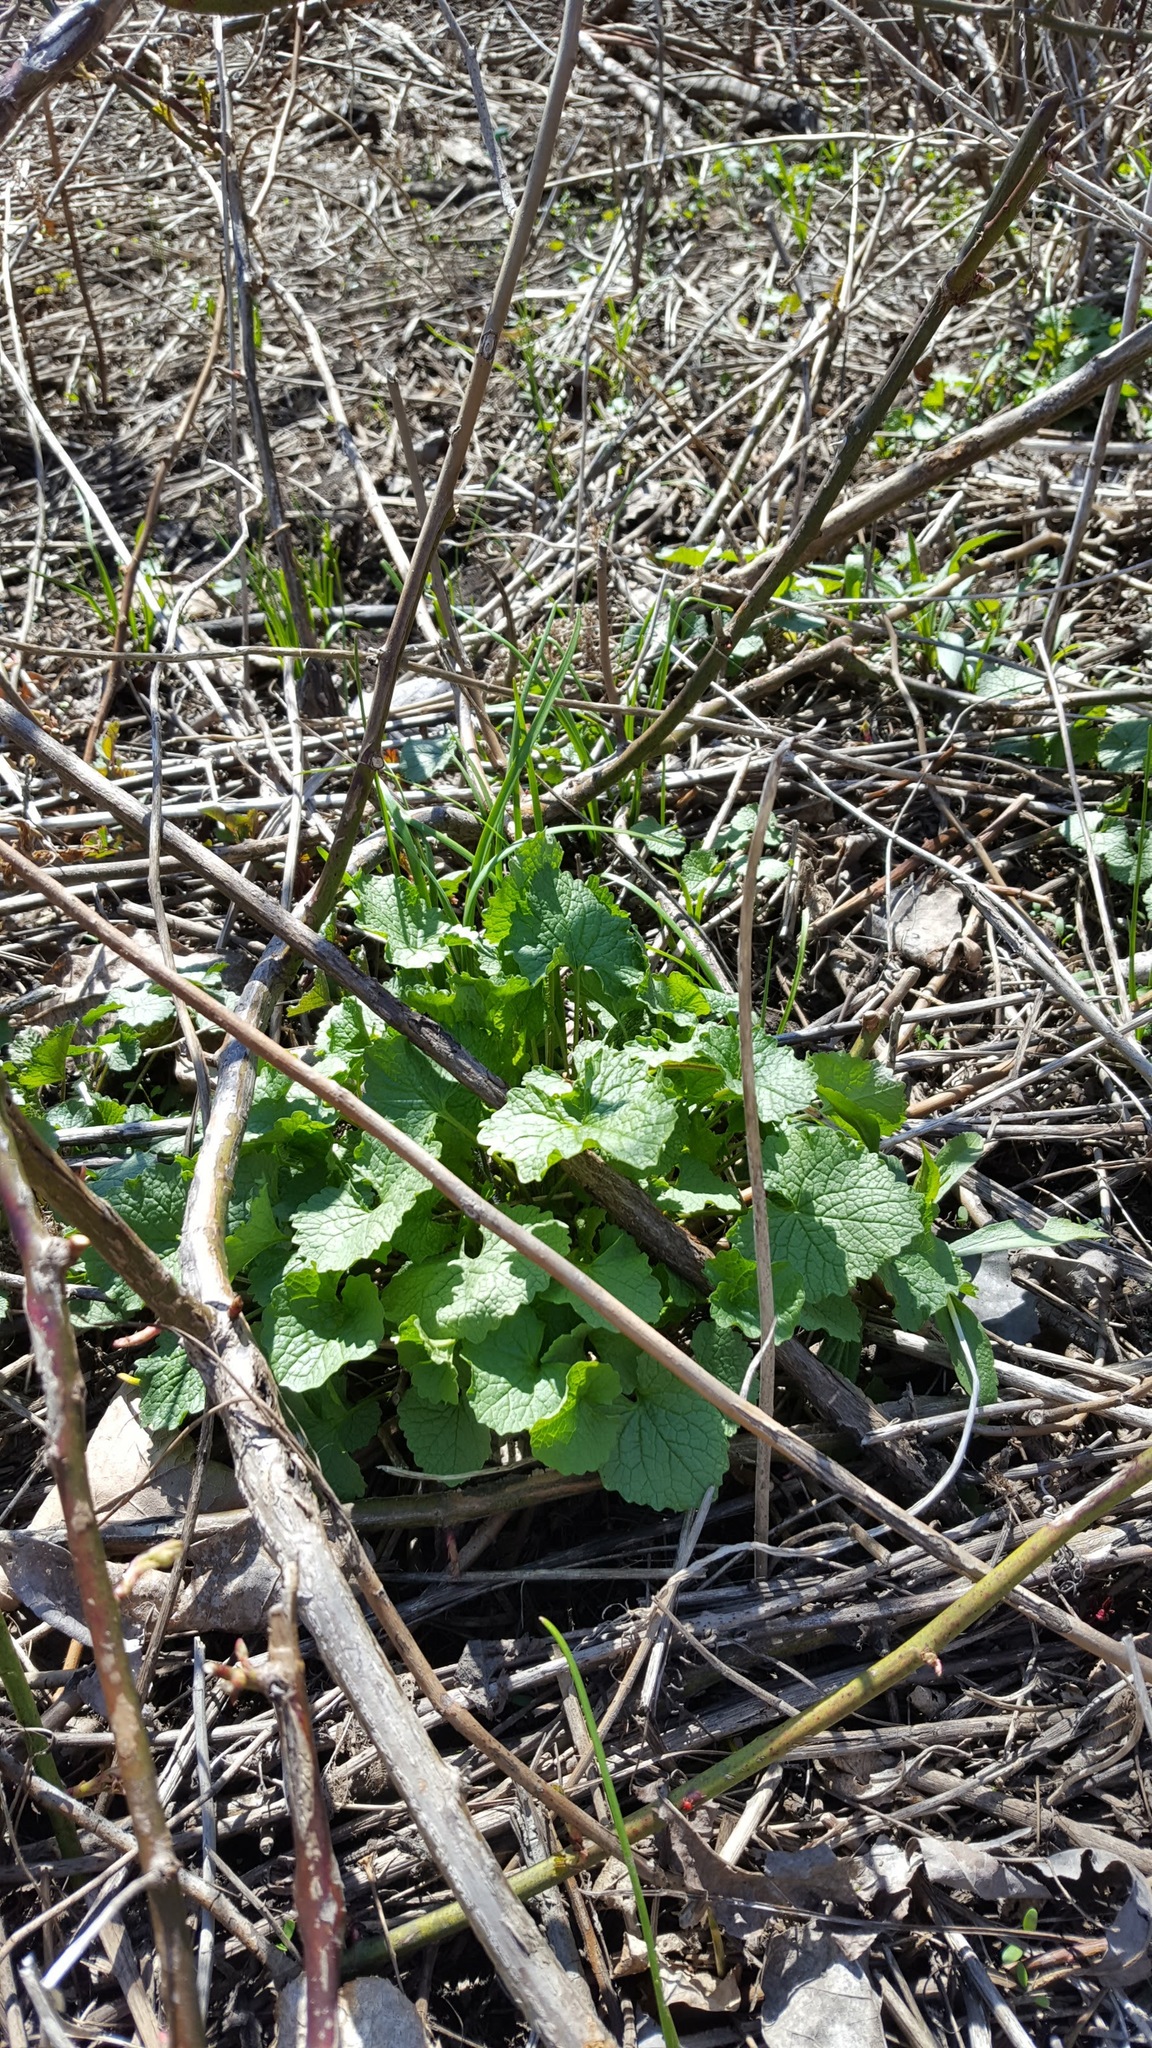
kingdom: Plantae
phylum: Tracheophyta
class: Magnoliopsida
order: Brassicales
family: Brassicaceae
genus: Alliaria
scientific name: Alliaria petiolata
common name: Garlic mustard
